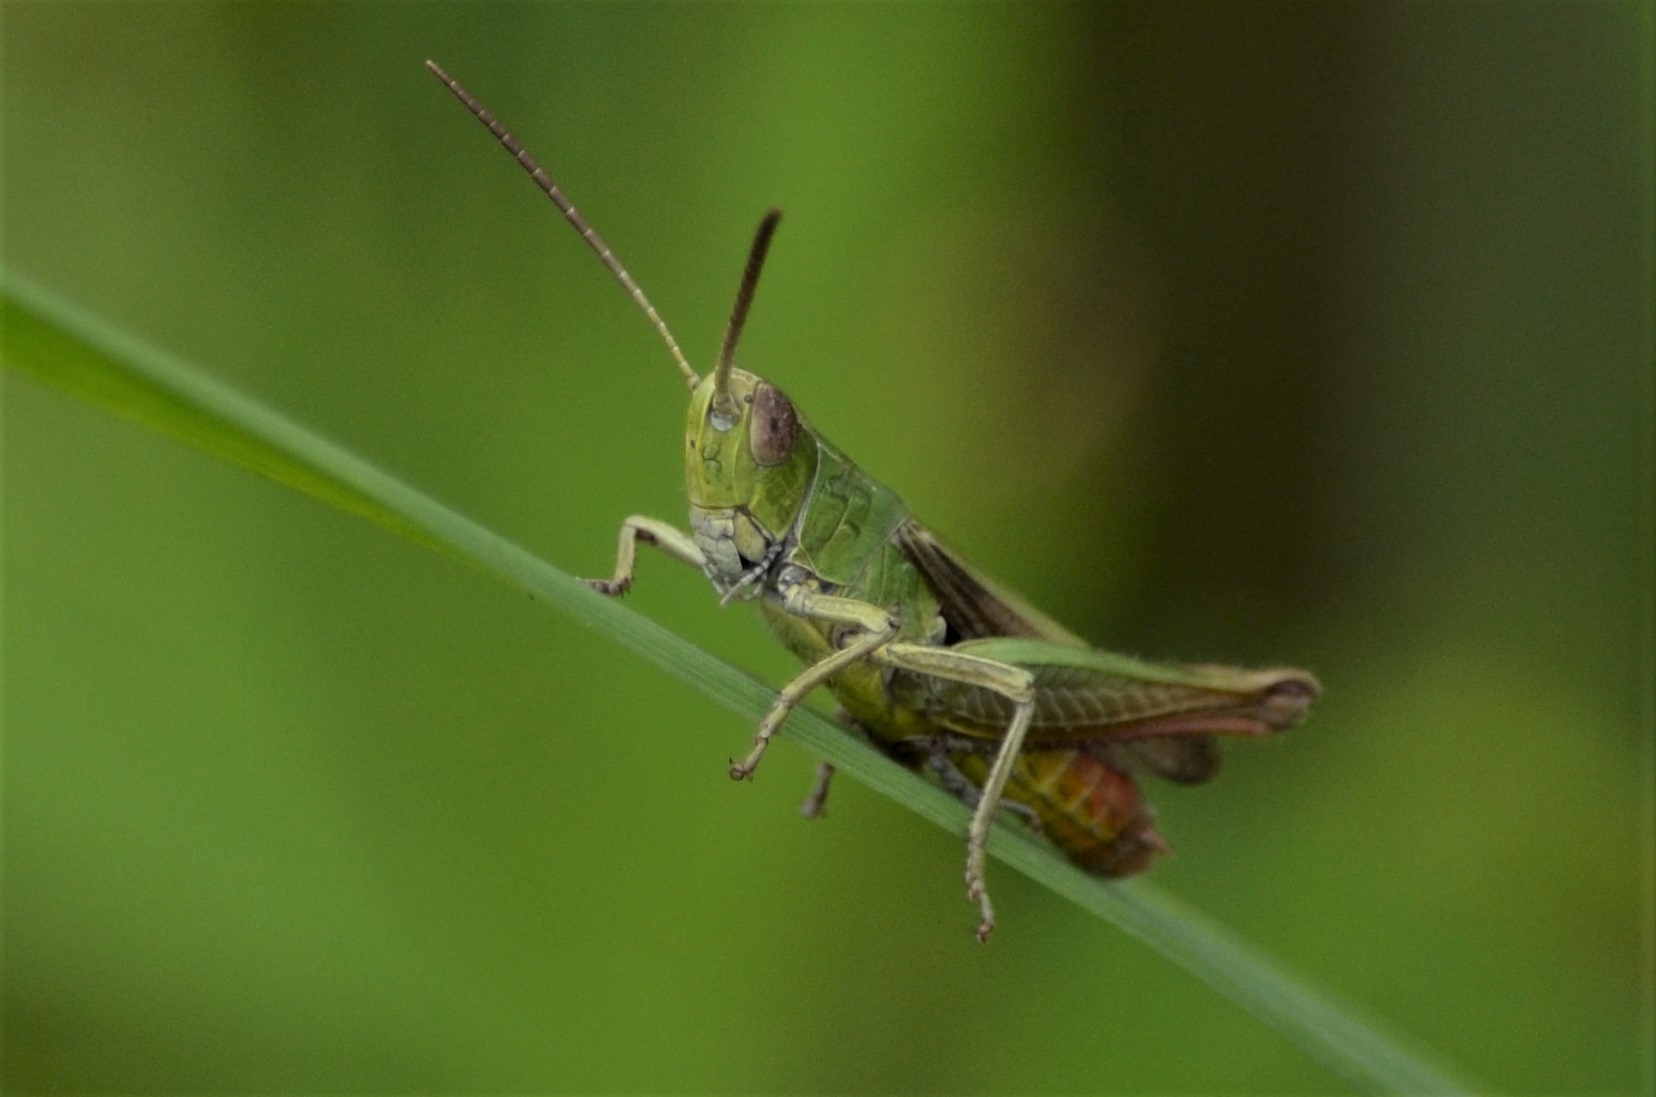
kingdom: Animalia
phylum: Arthropoda
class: Insecta
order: Orthoptera
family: Acrididae
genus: Chorthippus
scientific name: Chorthippus dorsatus
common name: Steppe grasshopper
